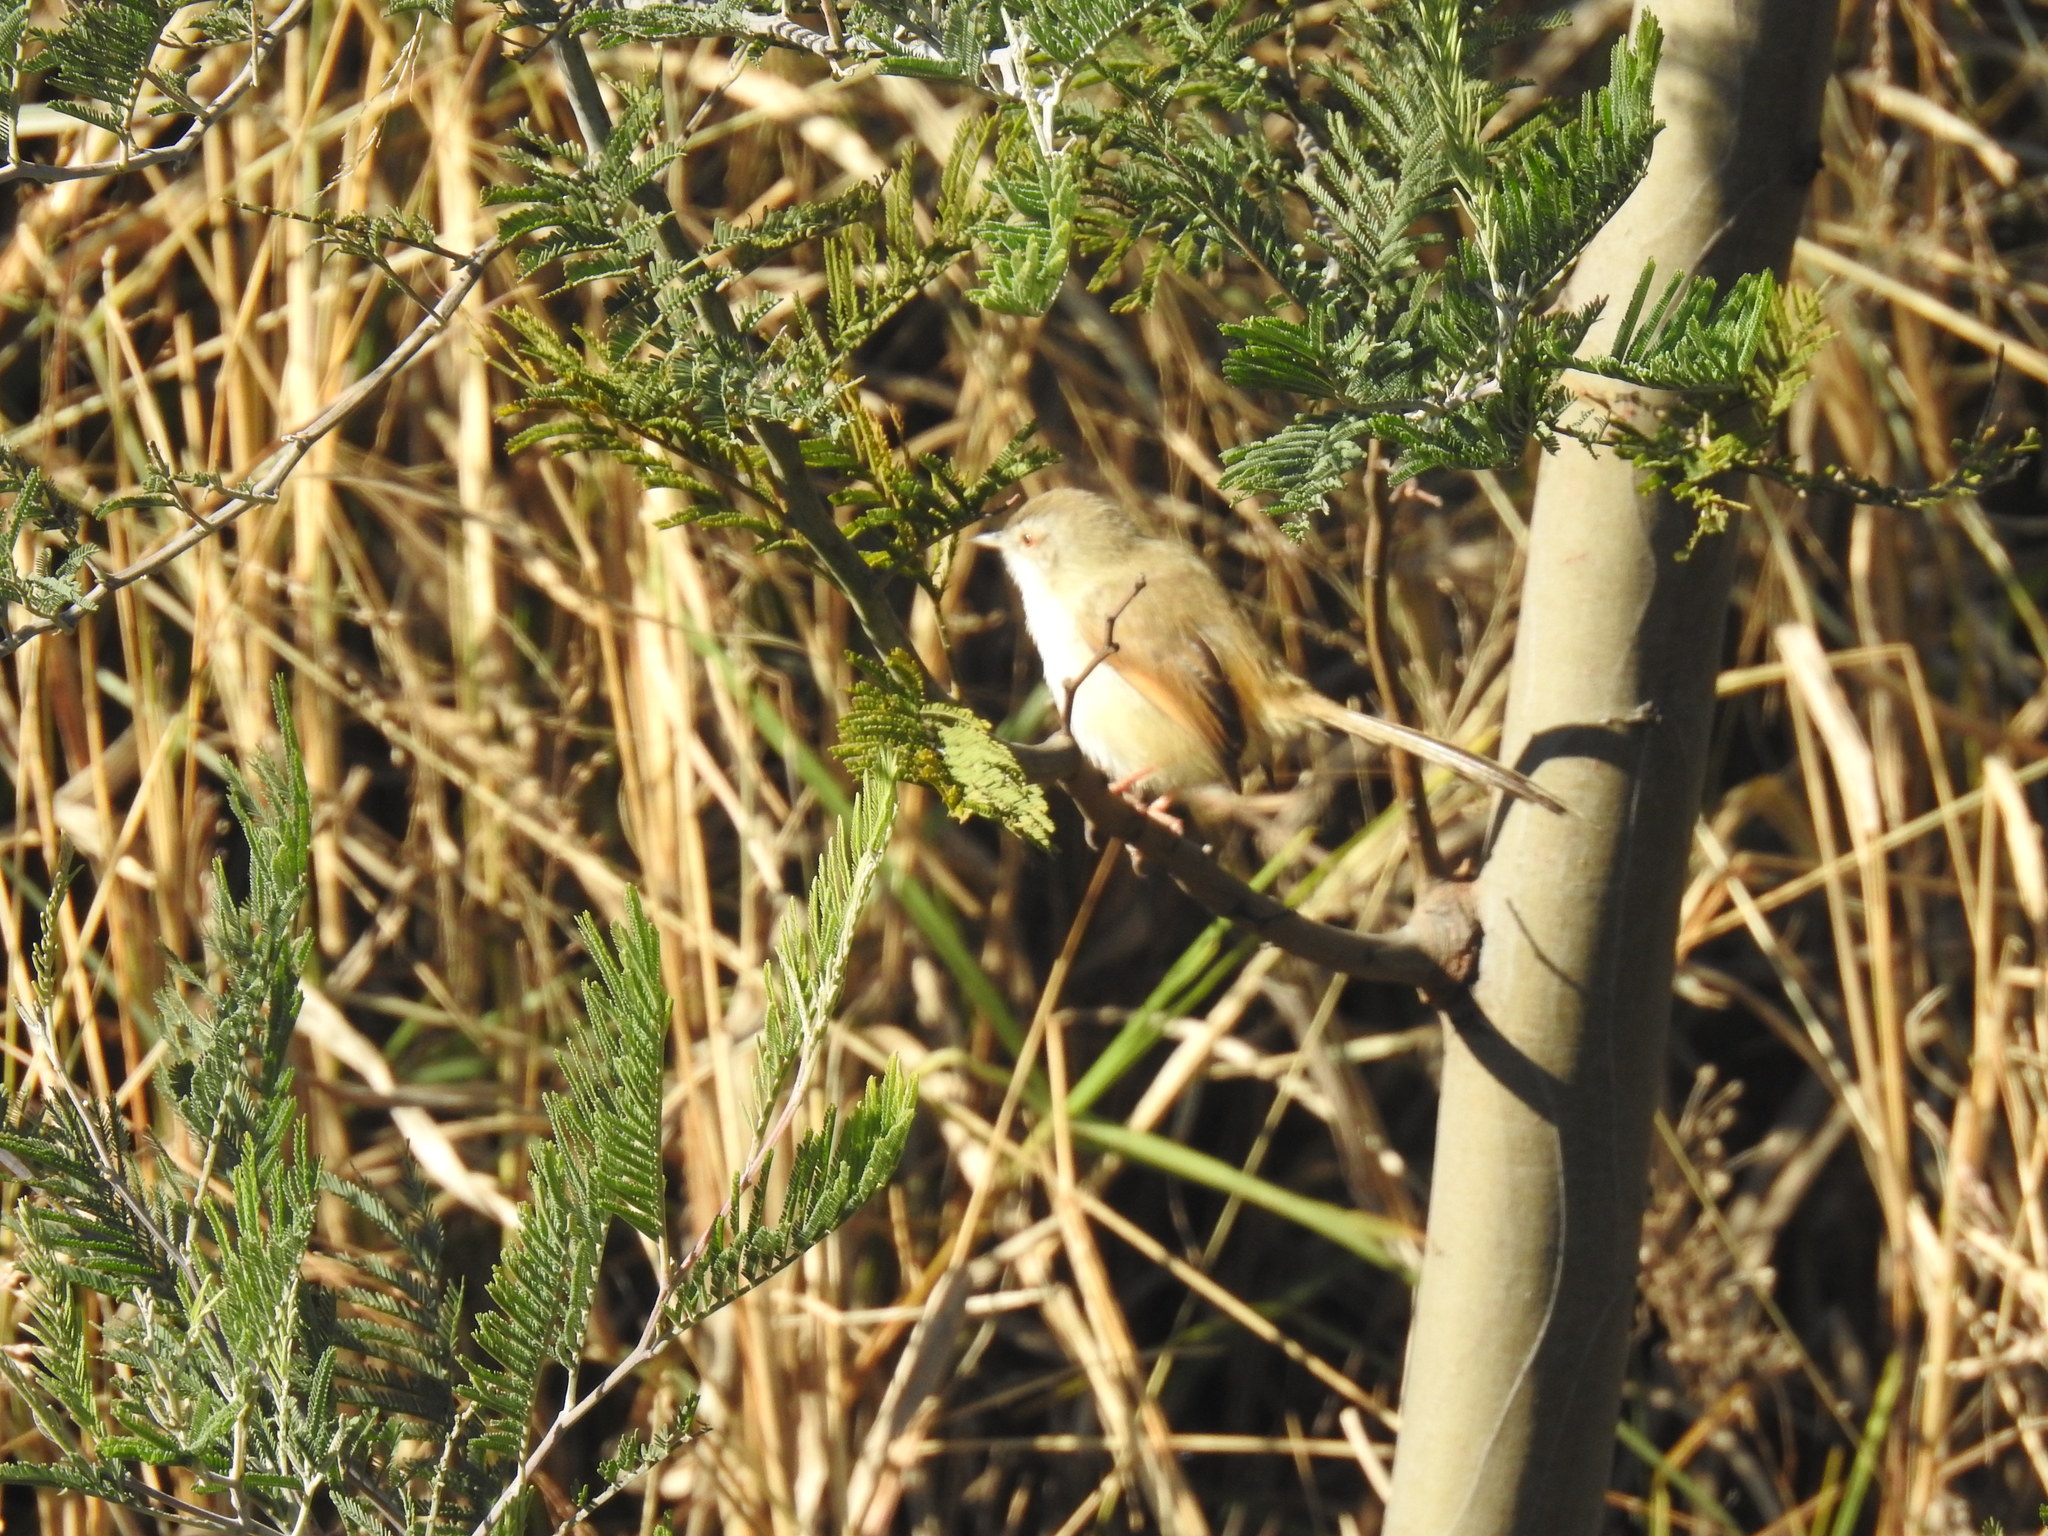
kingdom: Animalia
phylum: Chordata
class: Aves
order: Passeriformes
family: Cisticolidae
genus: Prinia
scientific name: Prinia subflava
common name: Tawny-flanked prinia
